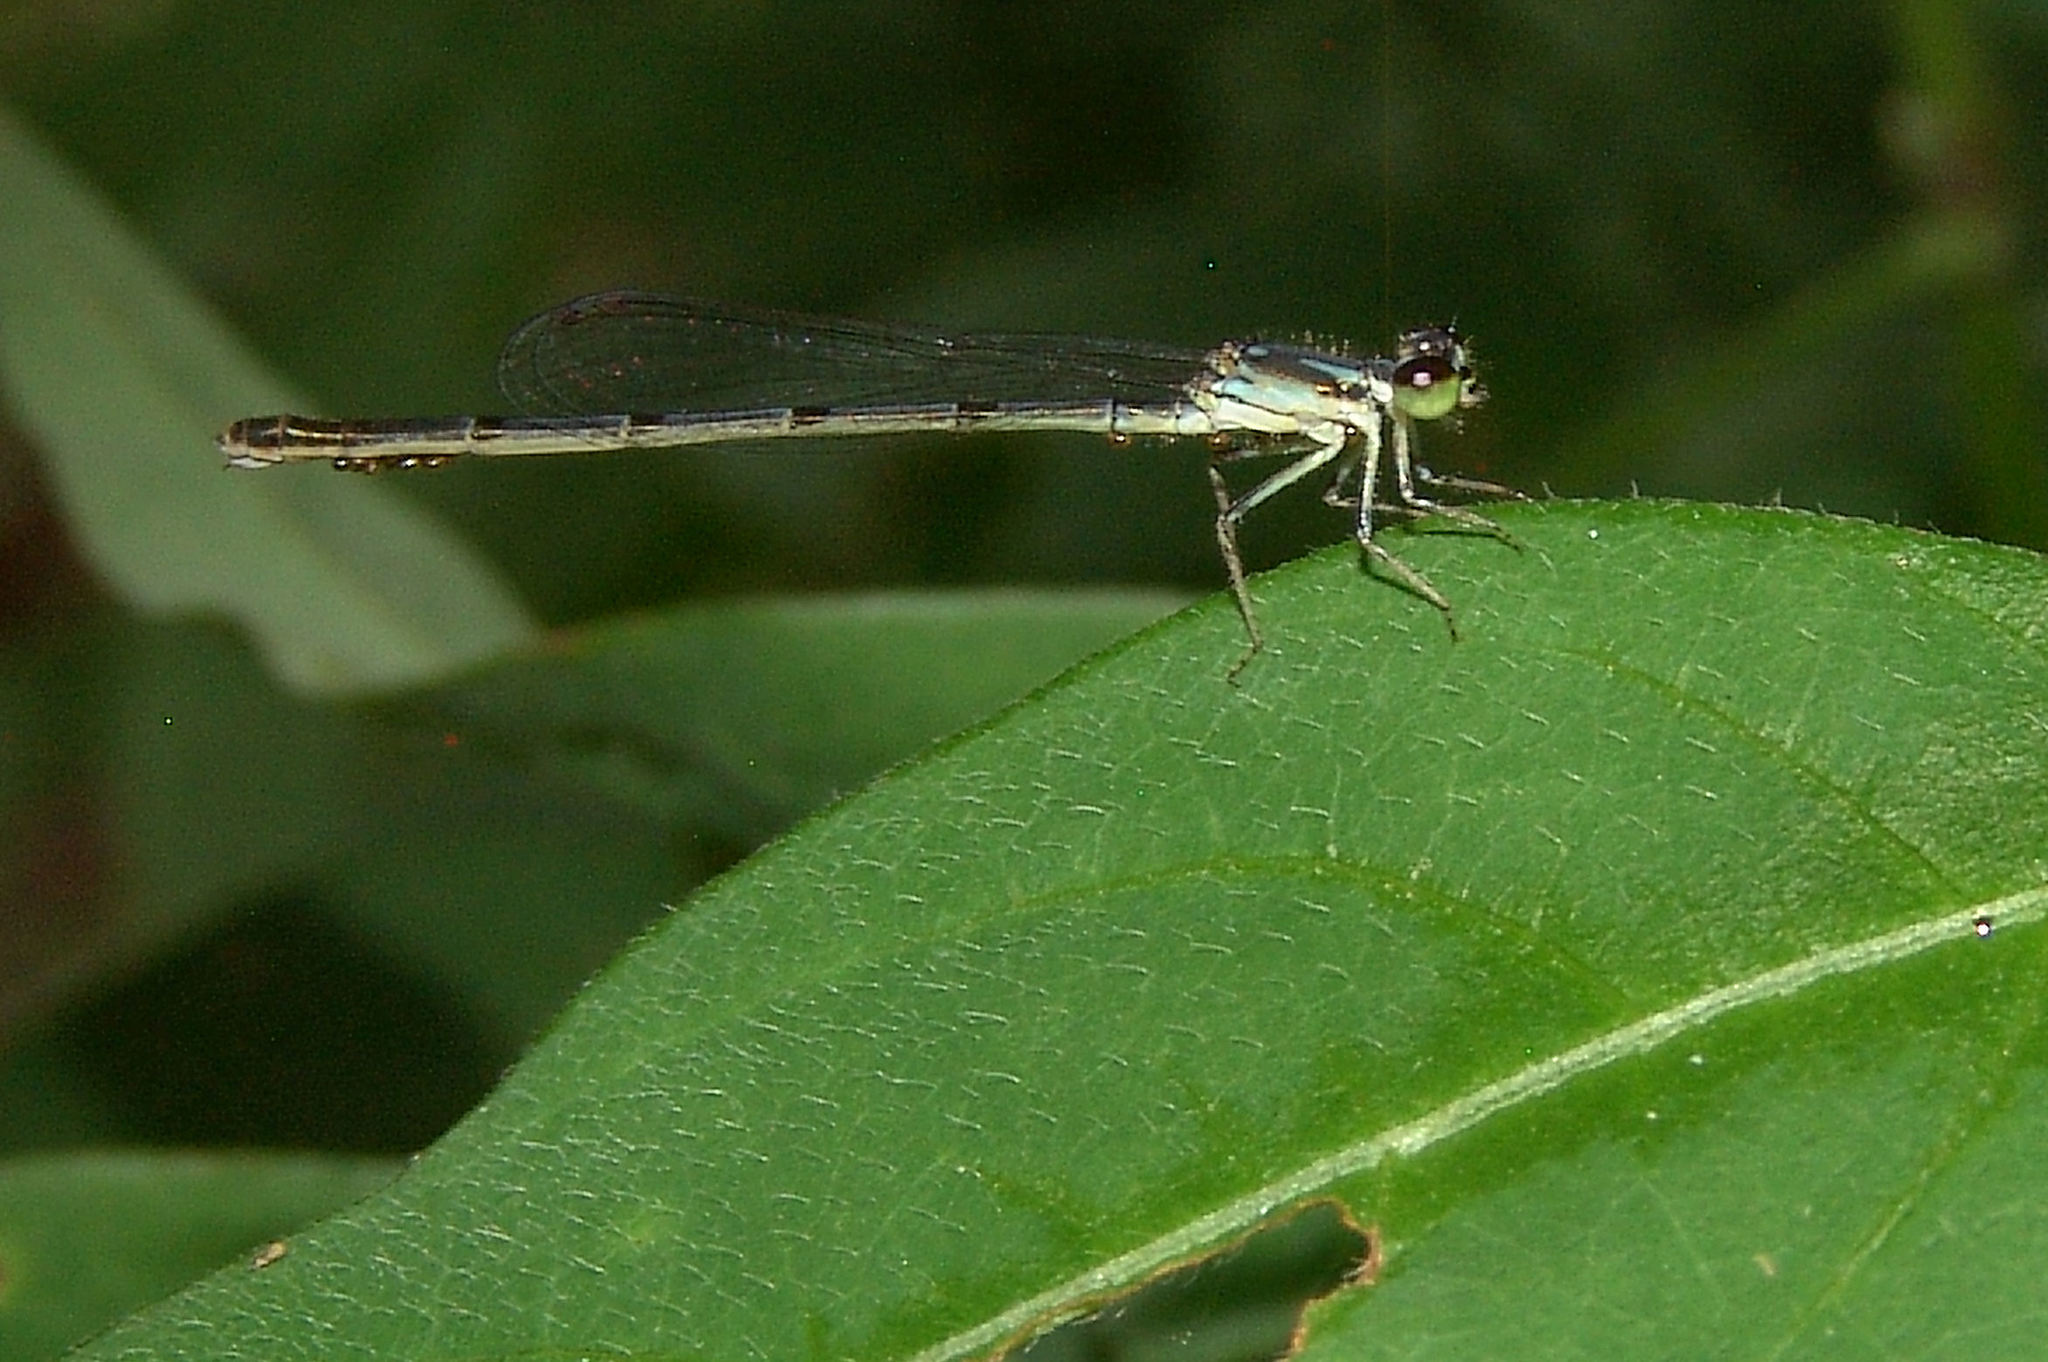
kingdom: Animalia
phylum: Arthropoda
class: Insecta
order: Odonata
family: Coenagrionidae
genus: Ischnura
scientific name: Ischnura posita
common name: Fragile forktail
